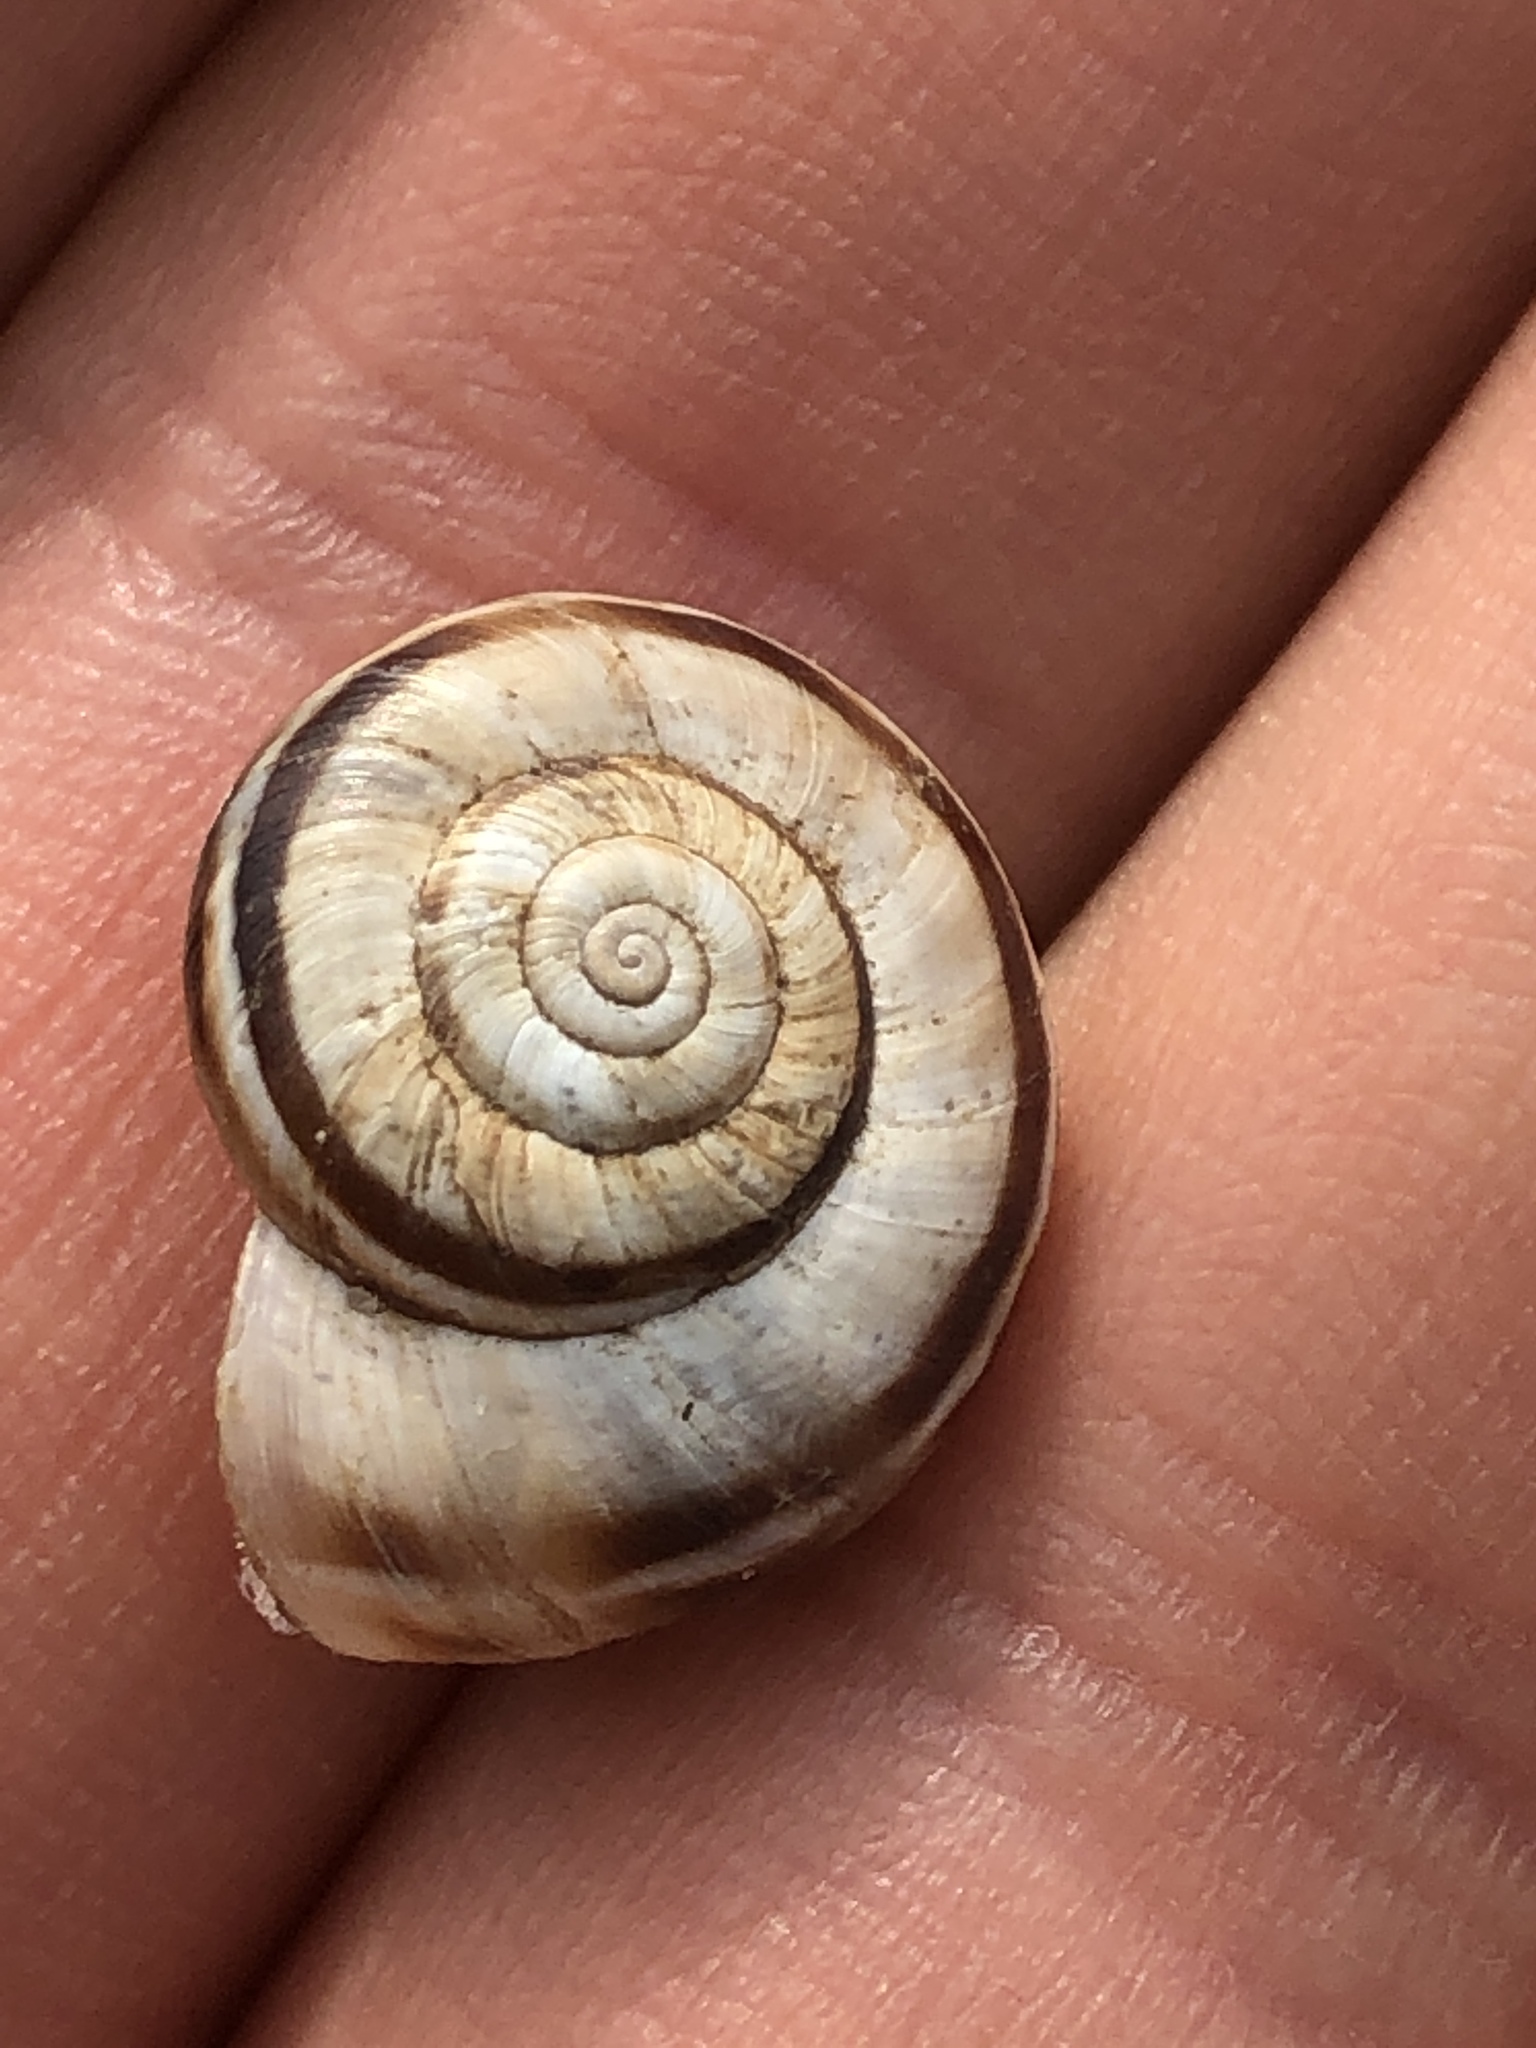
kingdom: Animalia
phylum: Mollusca
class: Gastropoda
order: Stylommatophora
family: Geomitridae
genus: Xerolenta
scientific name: Xerolenta obvia
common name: White heath snail
